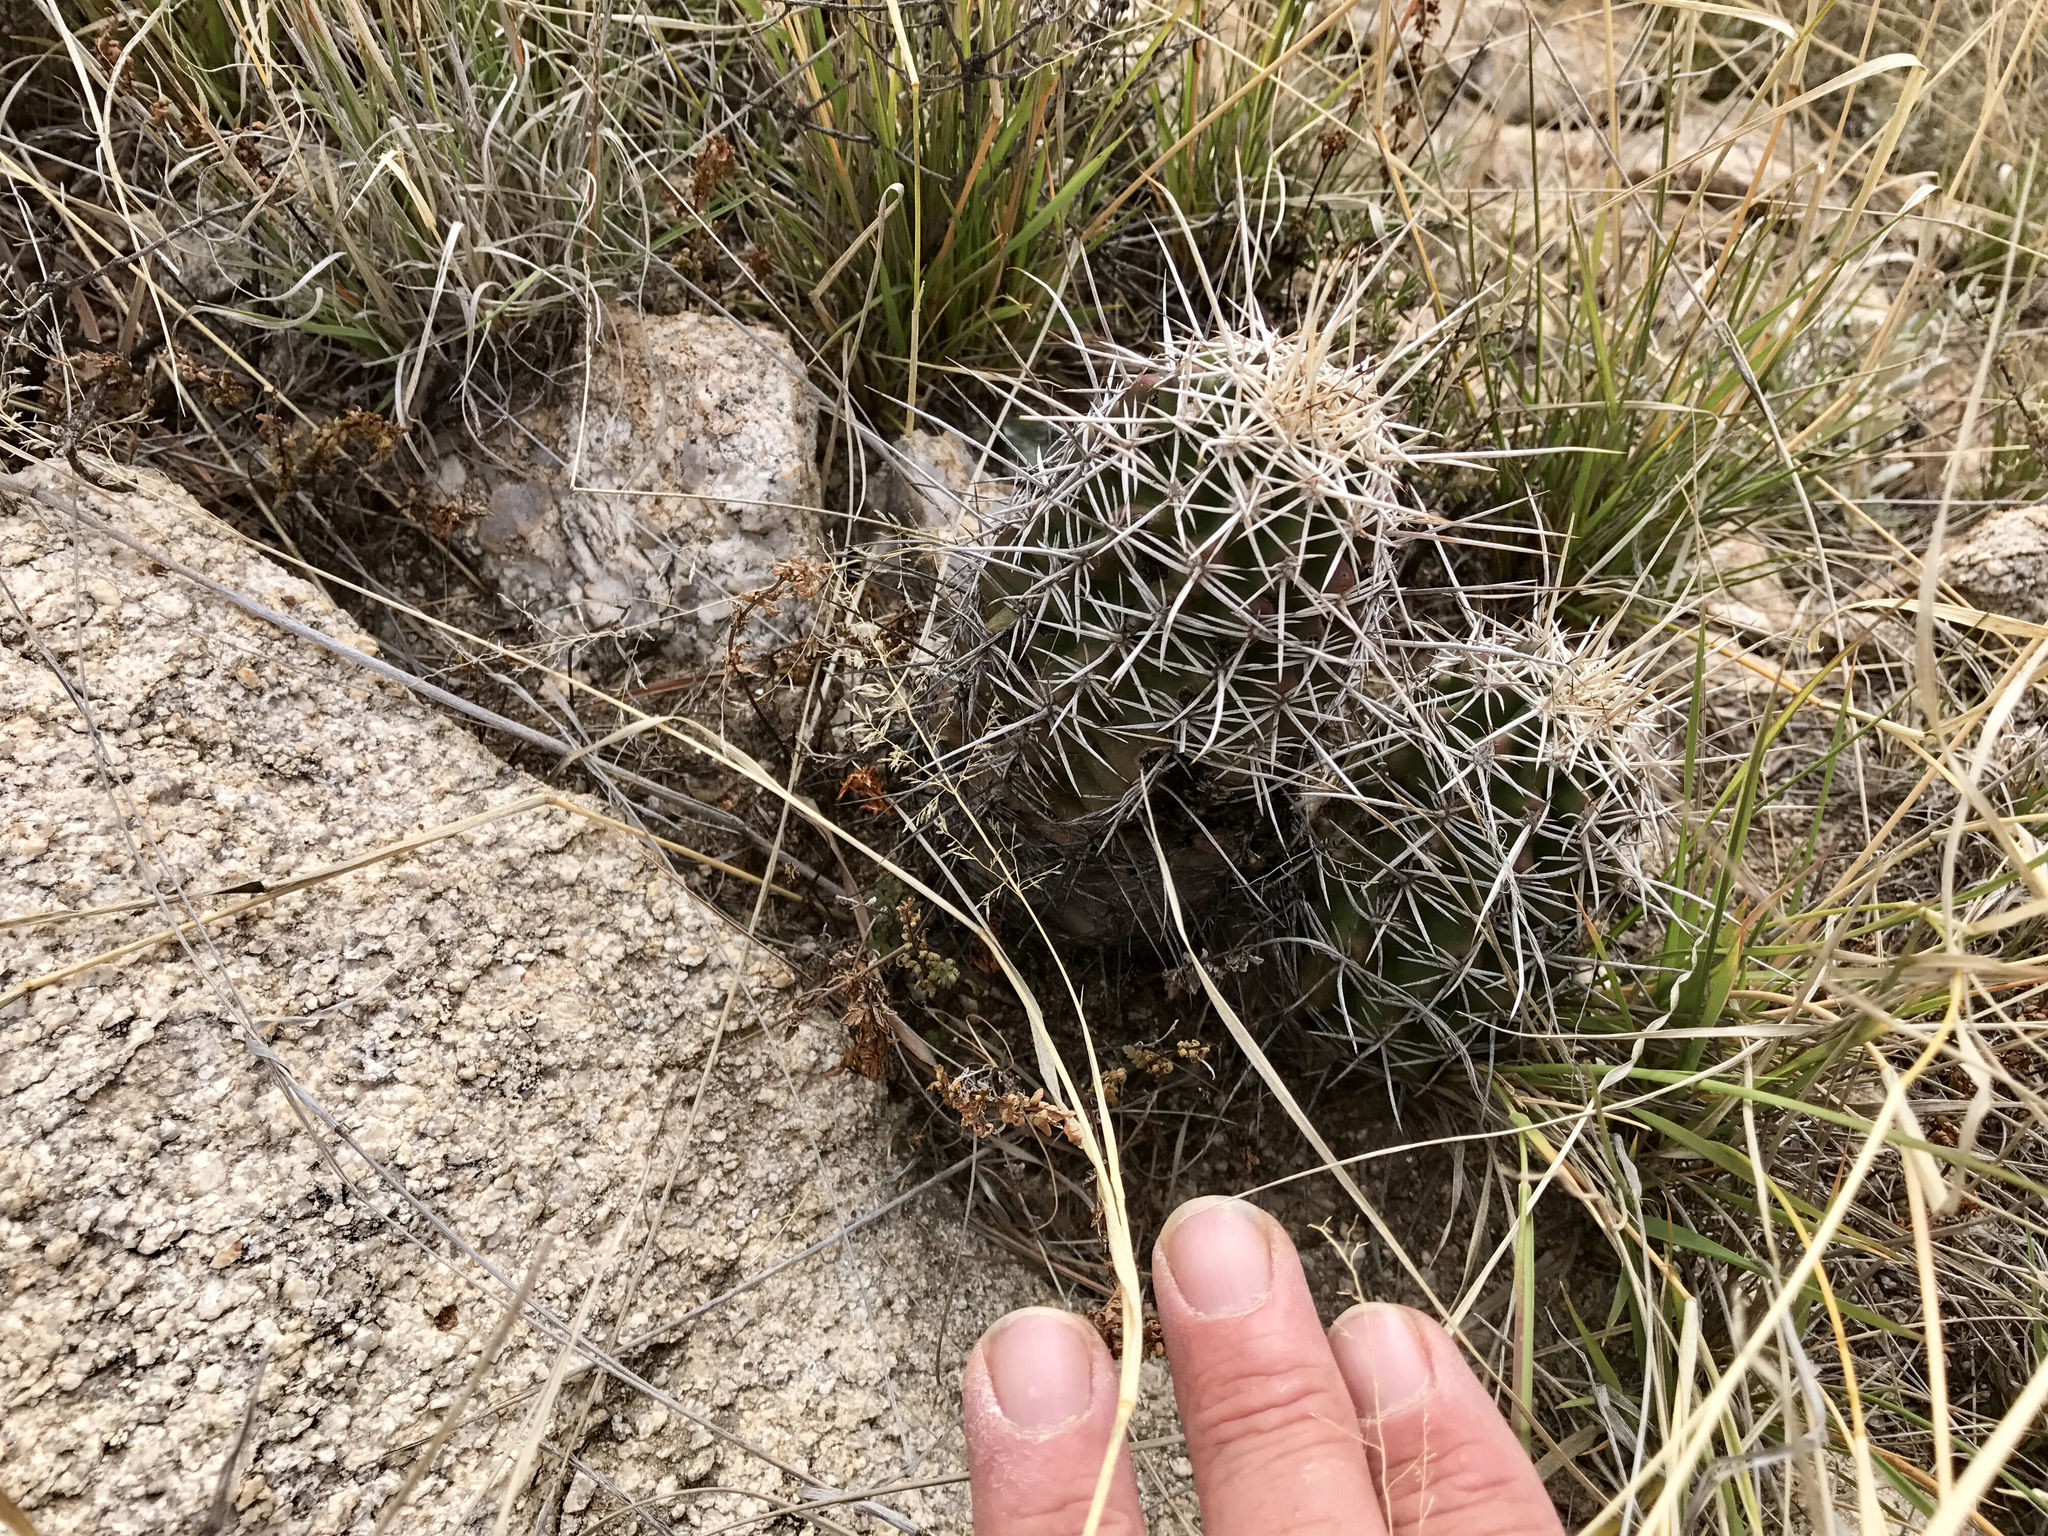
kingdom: Plantae
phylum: Tracheophyta
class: Magnoliopsida
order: Caryophyllales
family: Cactaceae
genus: Echinocereus
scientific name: Echinocereus fasciculatus
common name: Bundle hedgehog
